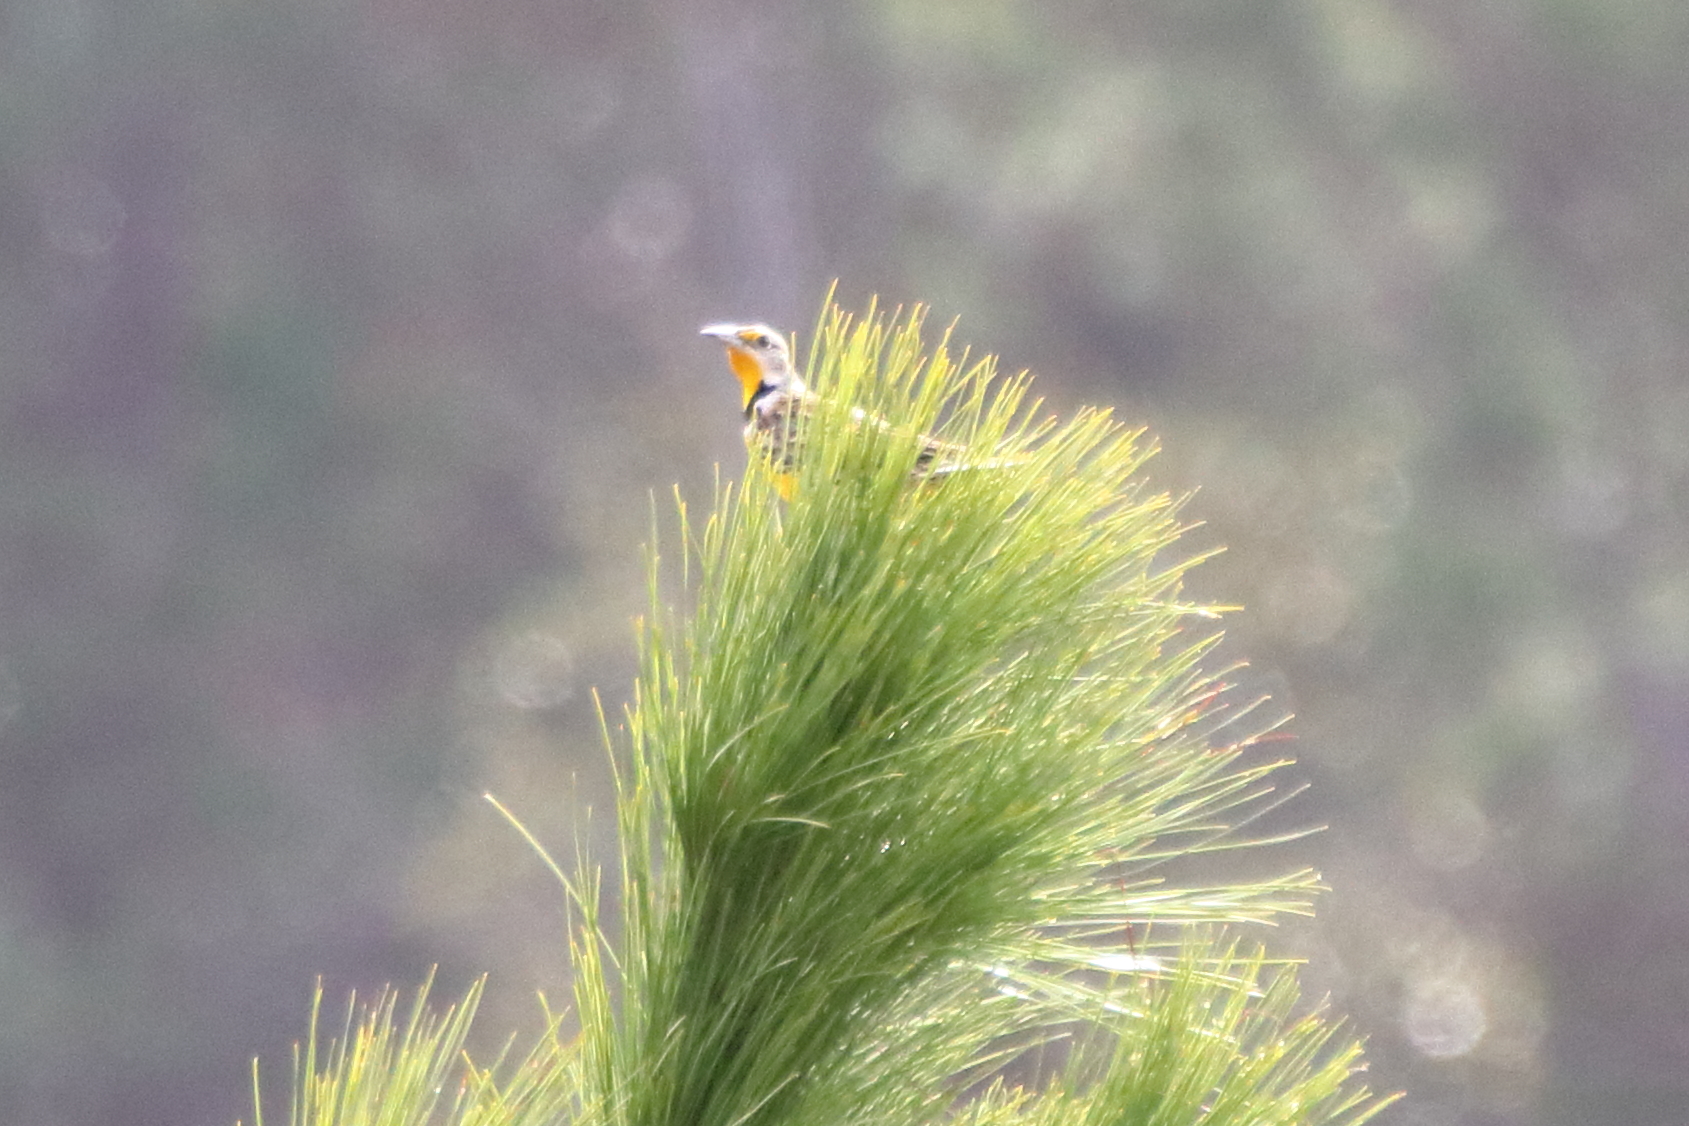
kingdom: Animalia
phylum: Chordata
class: Aves
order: Passeriformes
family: Icteridae
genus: Sturnella
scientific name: Sturnella magna
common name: Eastern meadowlark
